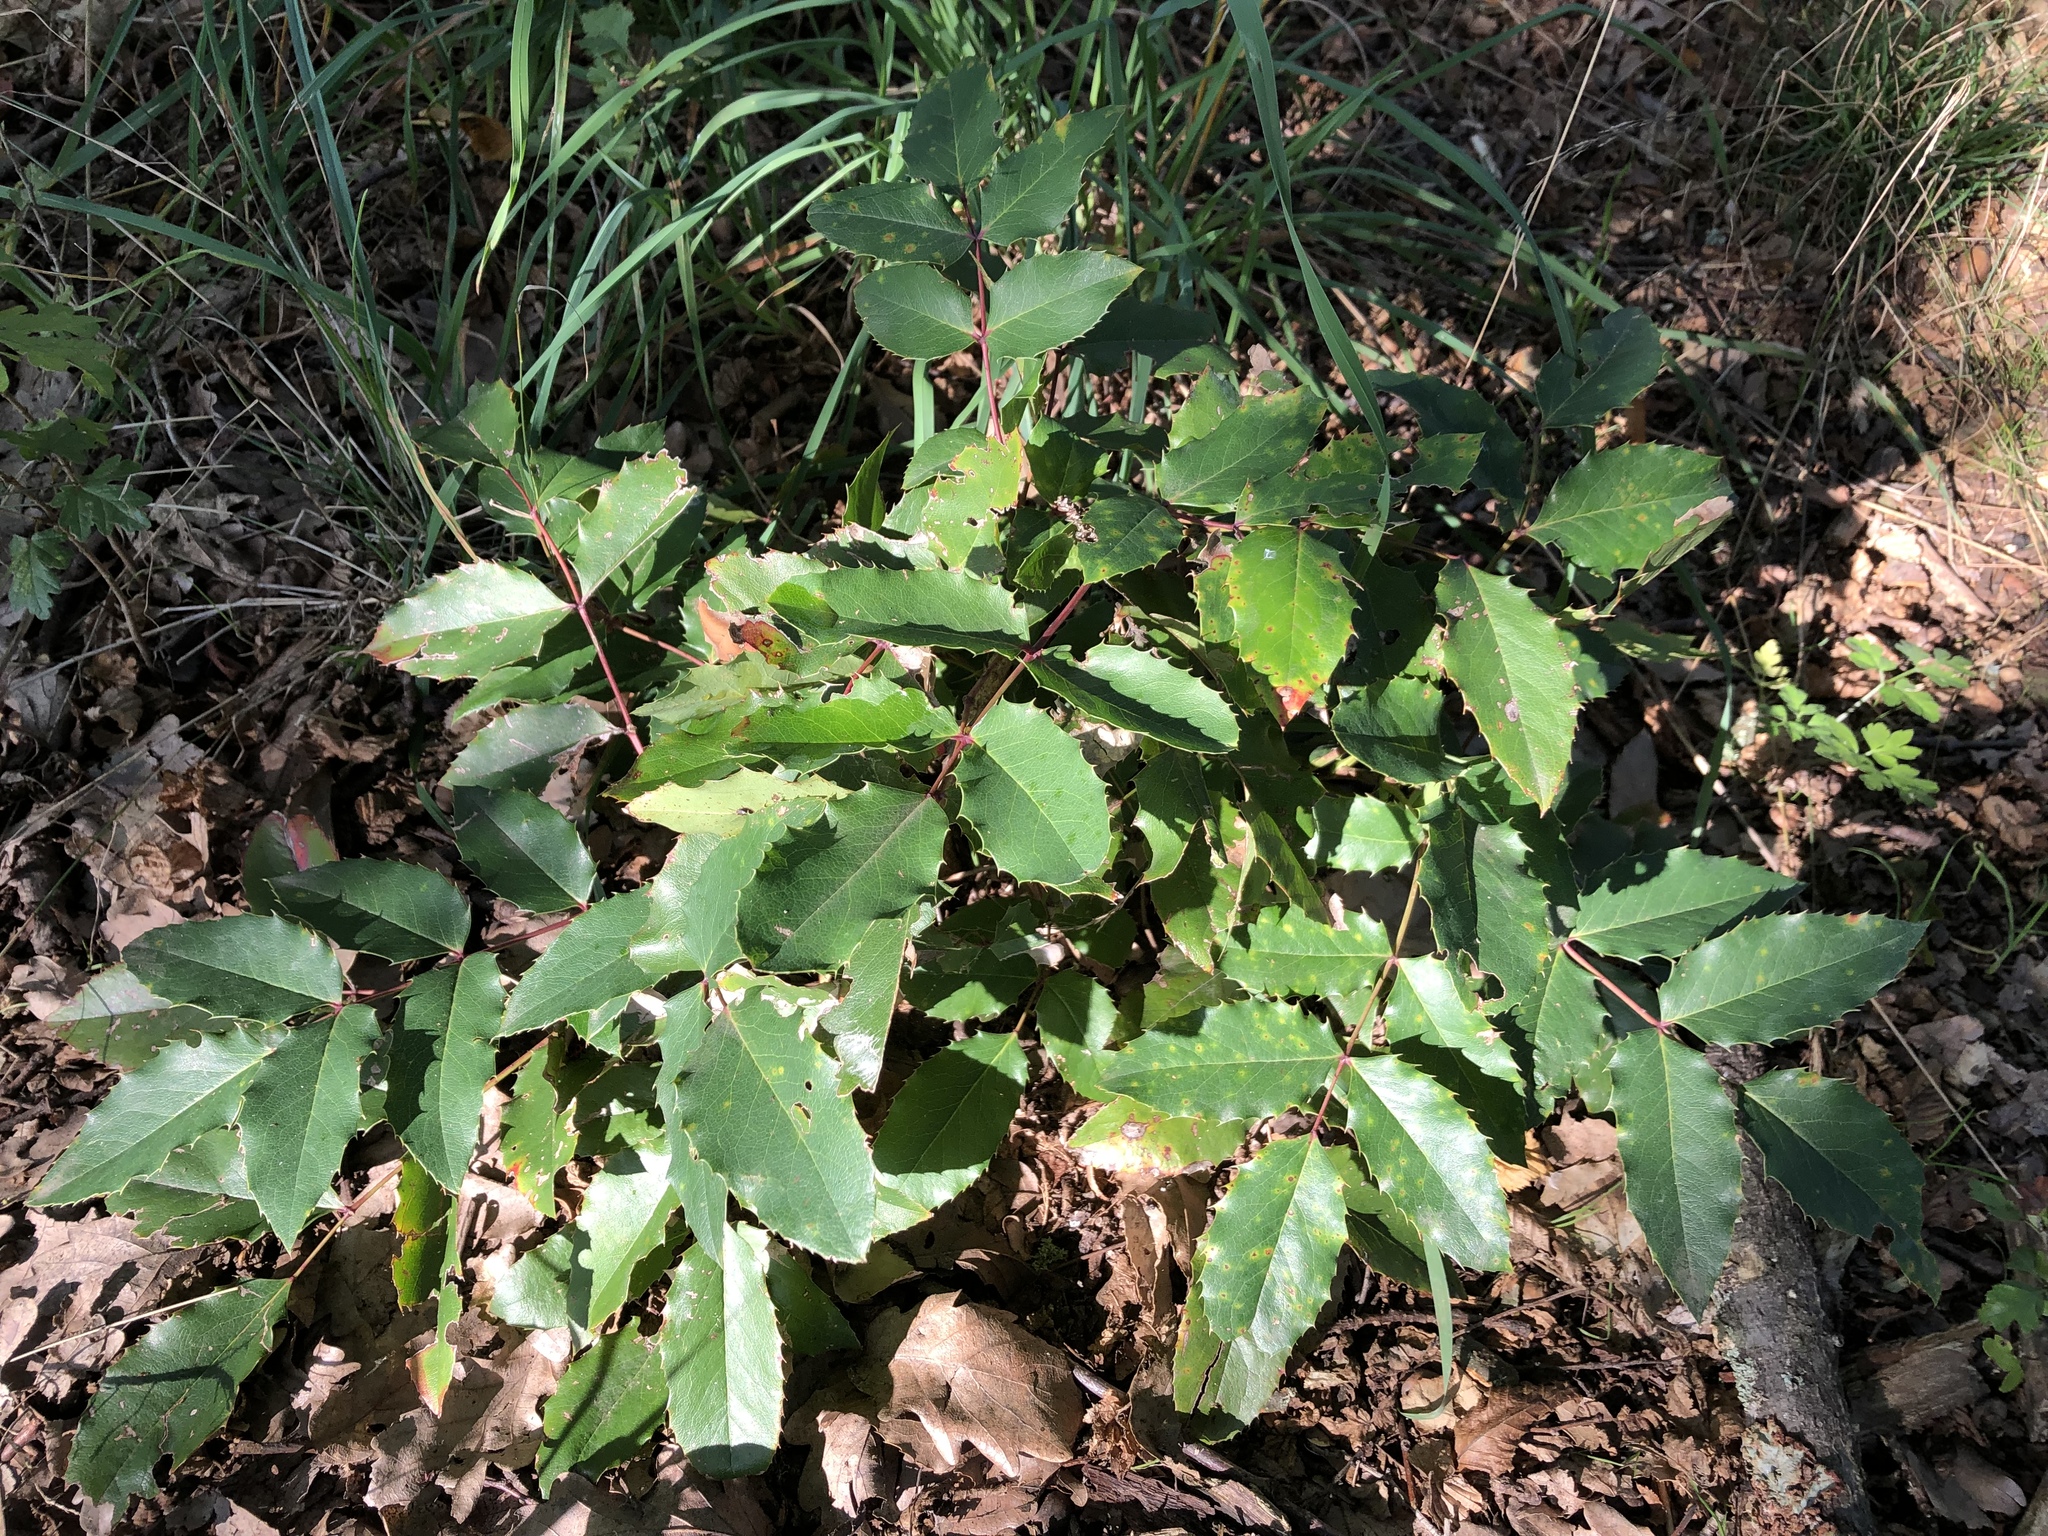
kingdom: Plantae
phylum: Tracheophyta
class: Magnoliopsida
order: Ranunculales
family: Berberidaceae
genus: Mahonia
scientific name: Mahonia aquifolium
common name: Oregon-grape
